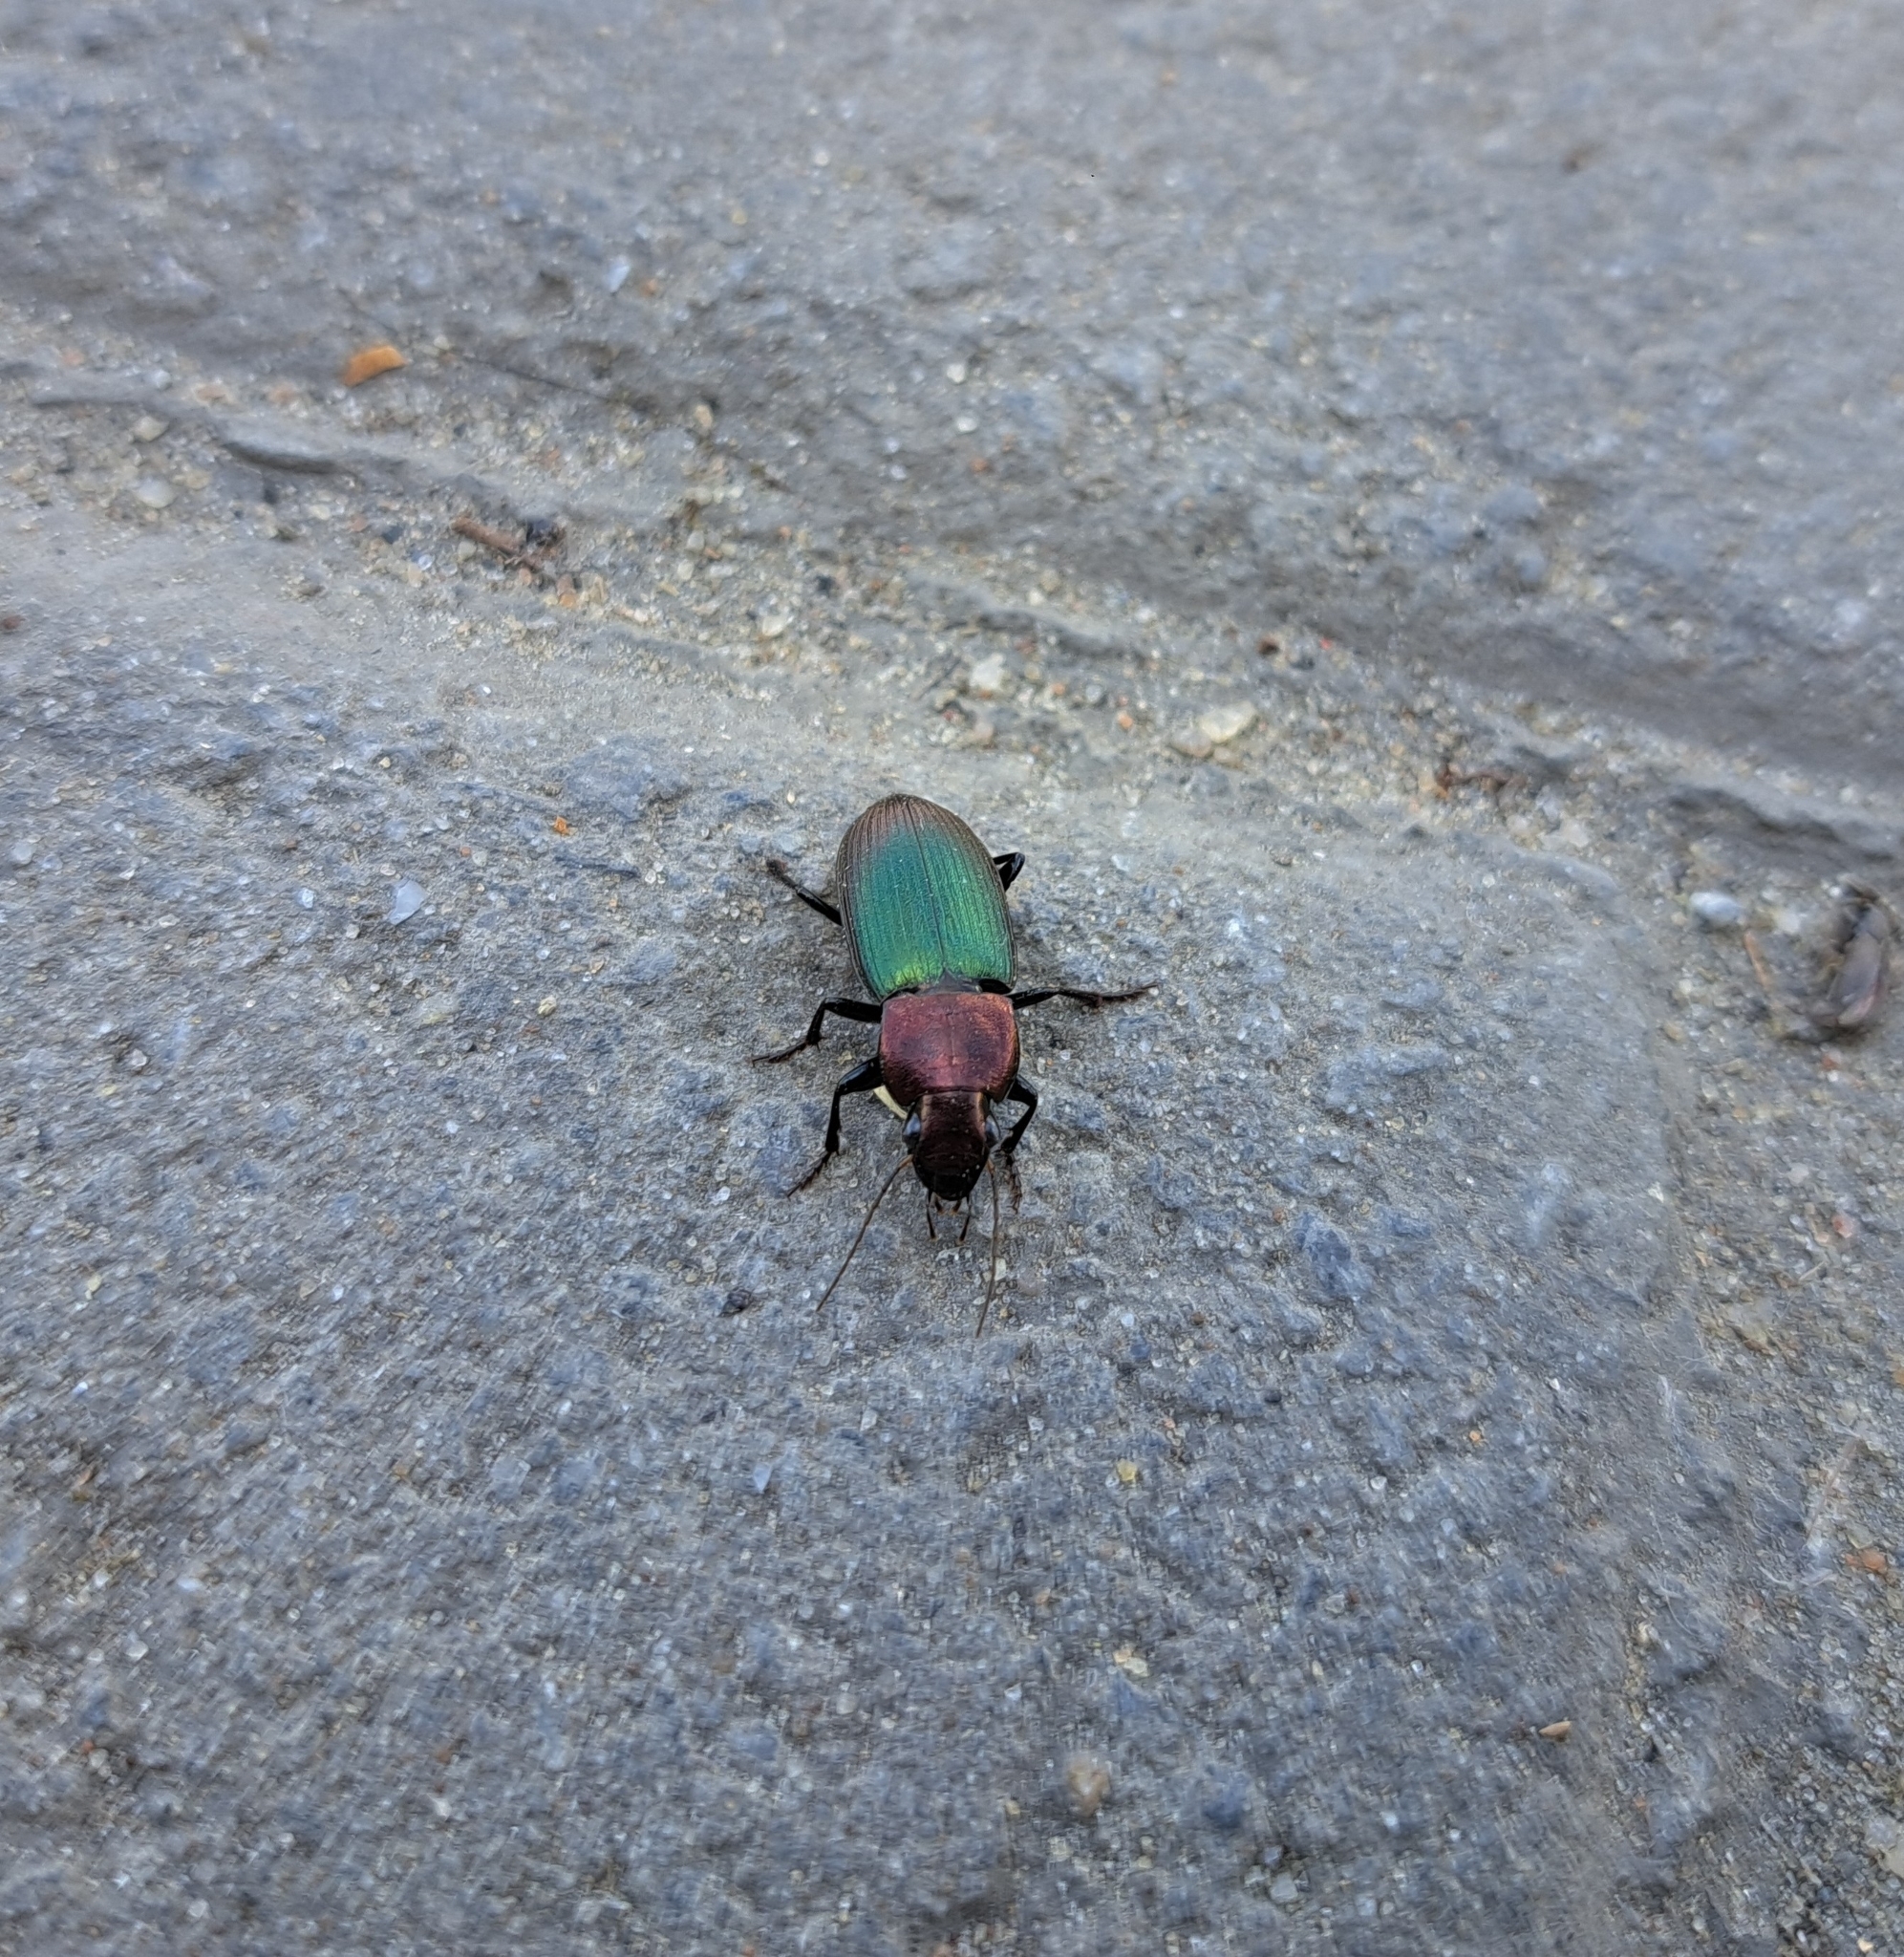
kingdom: Animalia
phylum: Arthropoda
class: Insecta
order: Coleoptera
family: Carabidae
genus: Neoaulacoryssus
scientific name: Neoaulacoryssus speciosus
